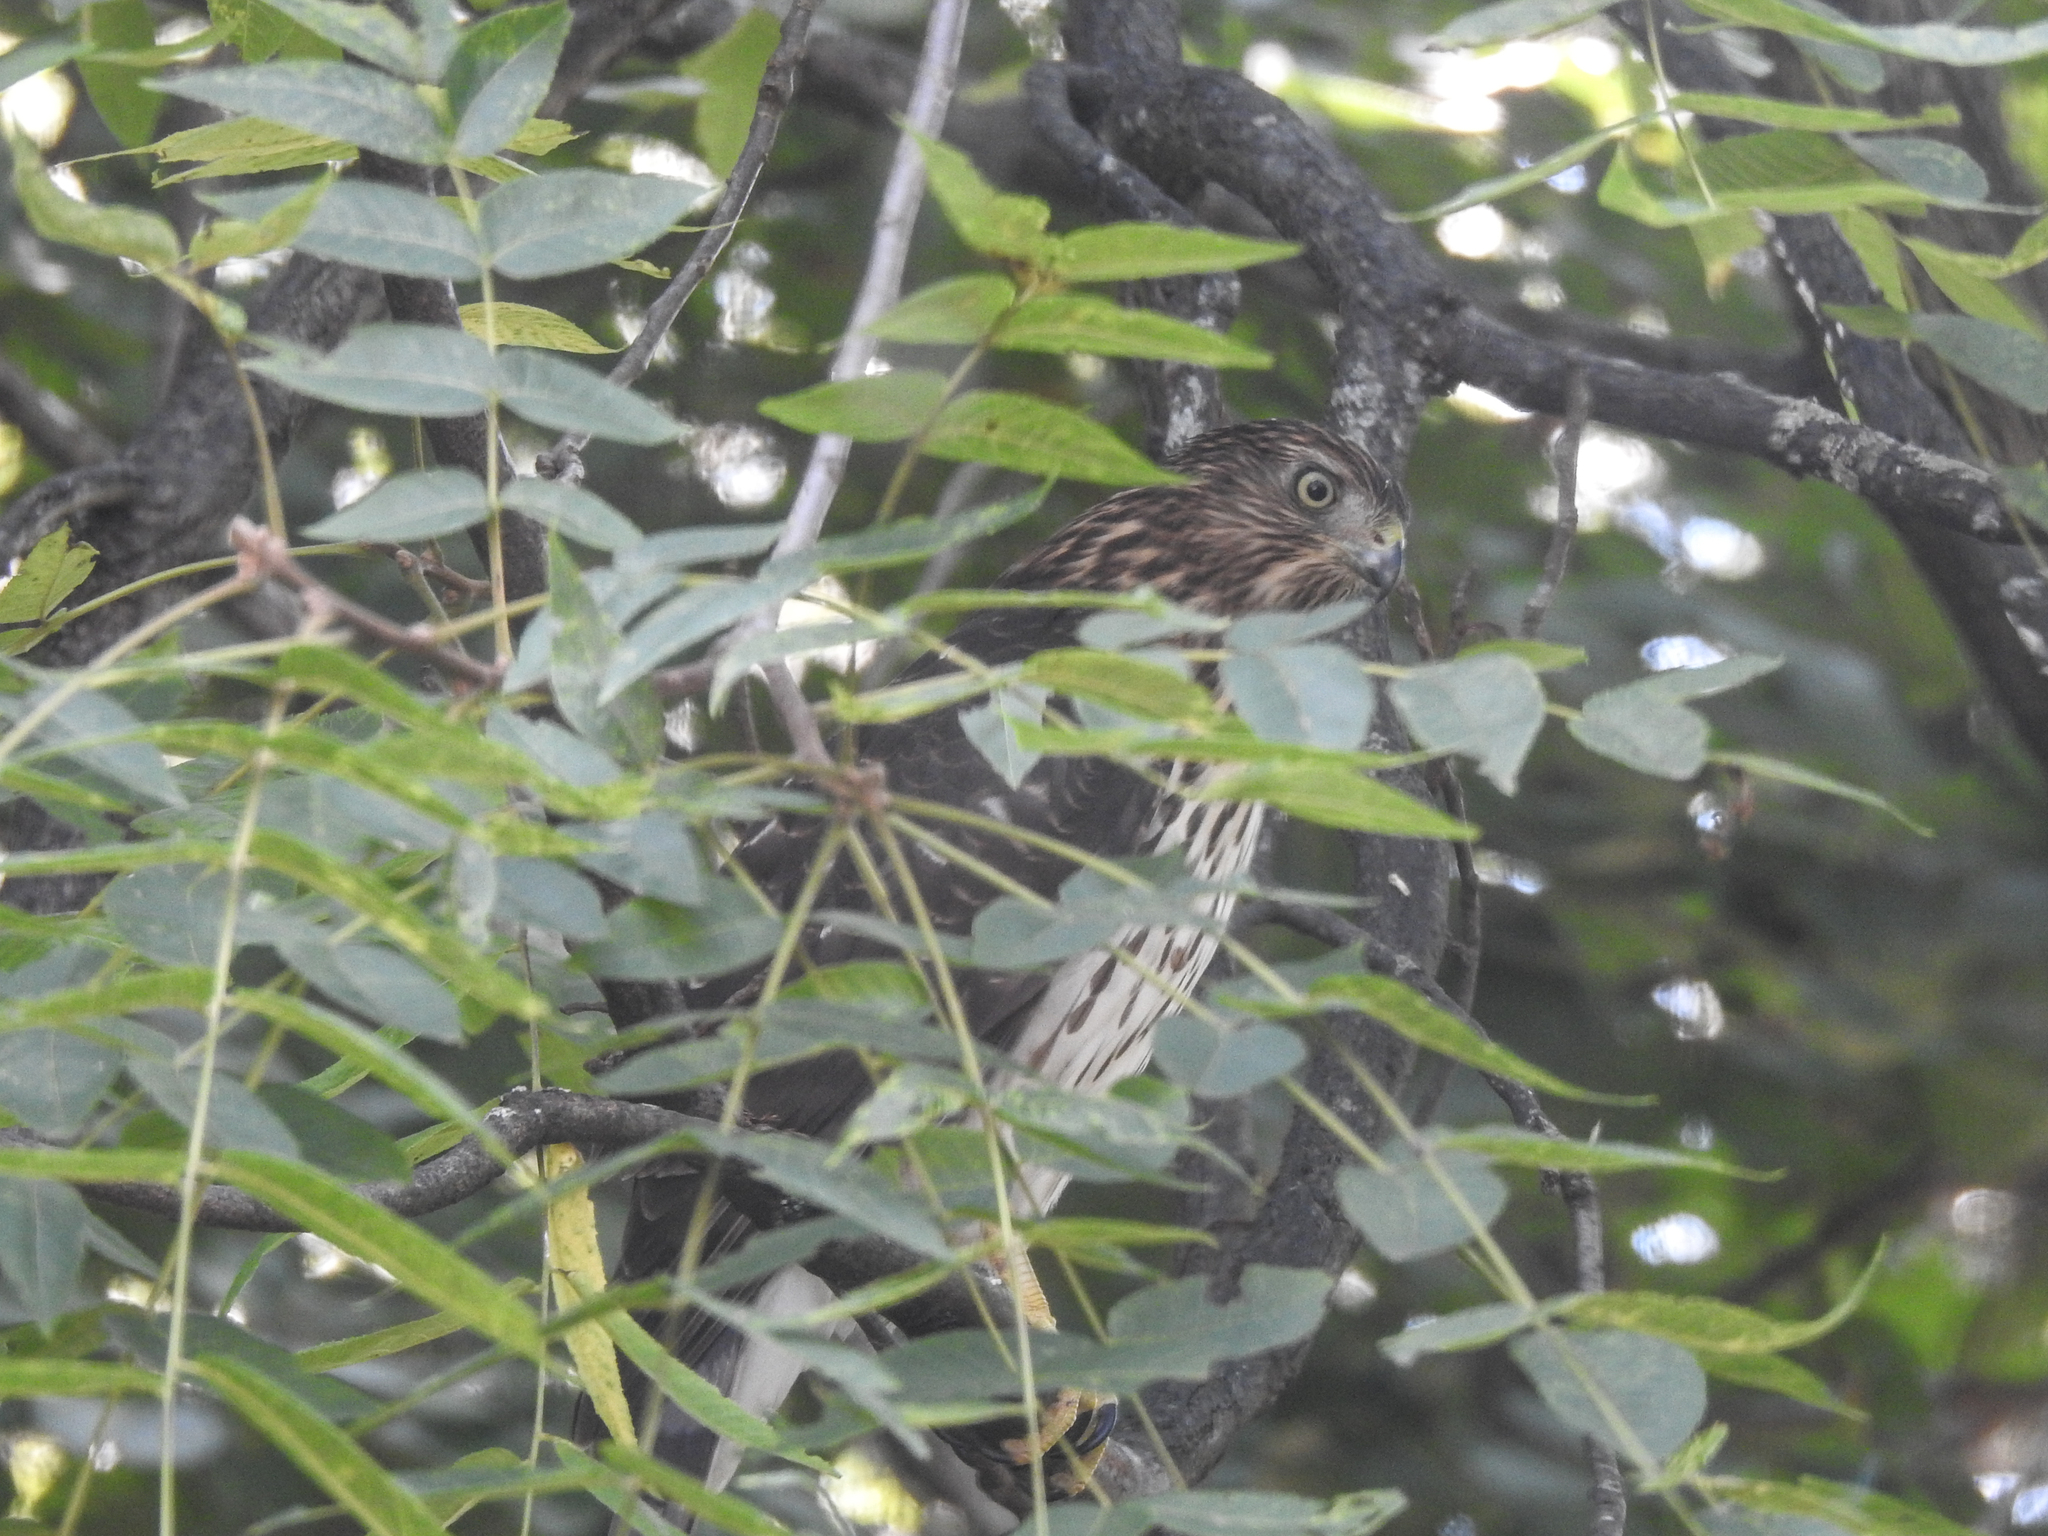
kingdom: Animalia
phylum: Chordata
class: Aves
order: Accipitriformes
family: Accipitridae
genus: Accipiter
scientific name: Accipiter cooperii
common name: Cooper's hawk
